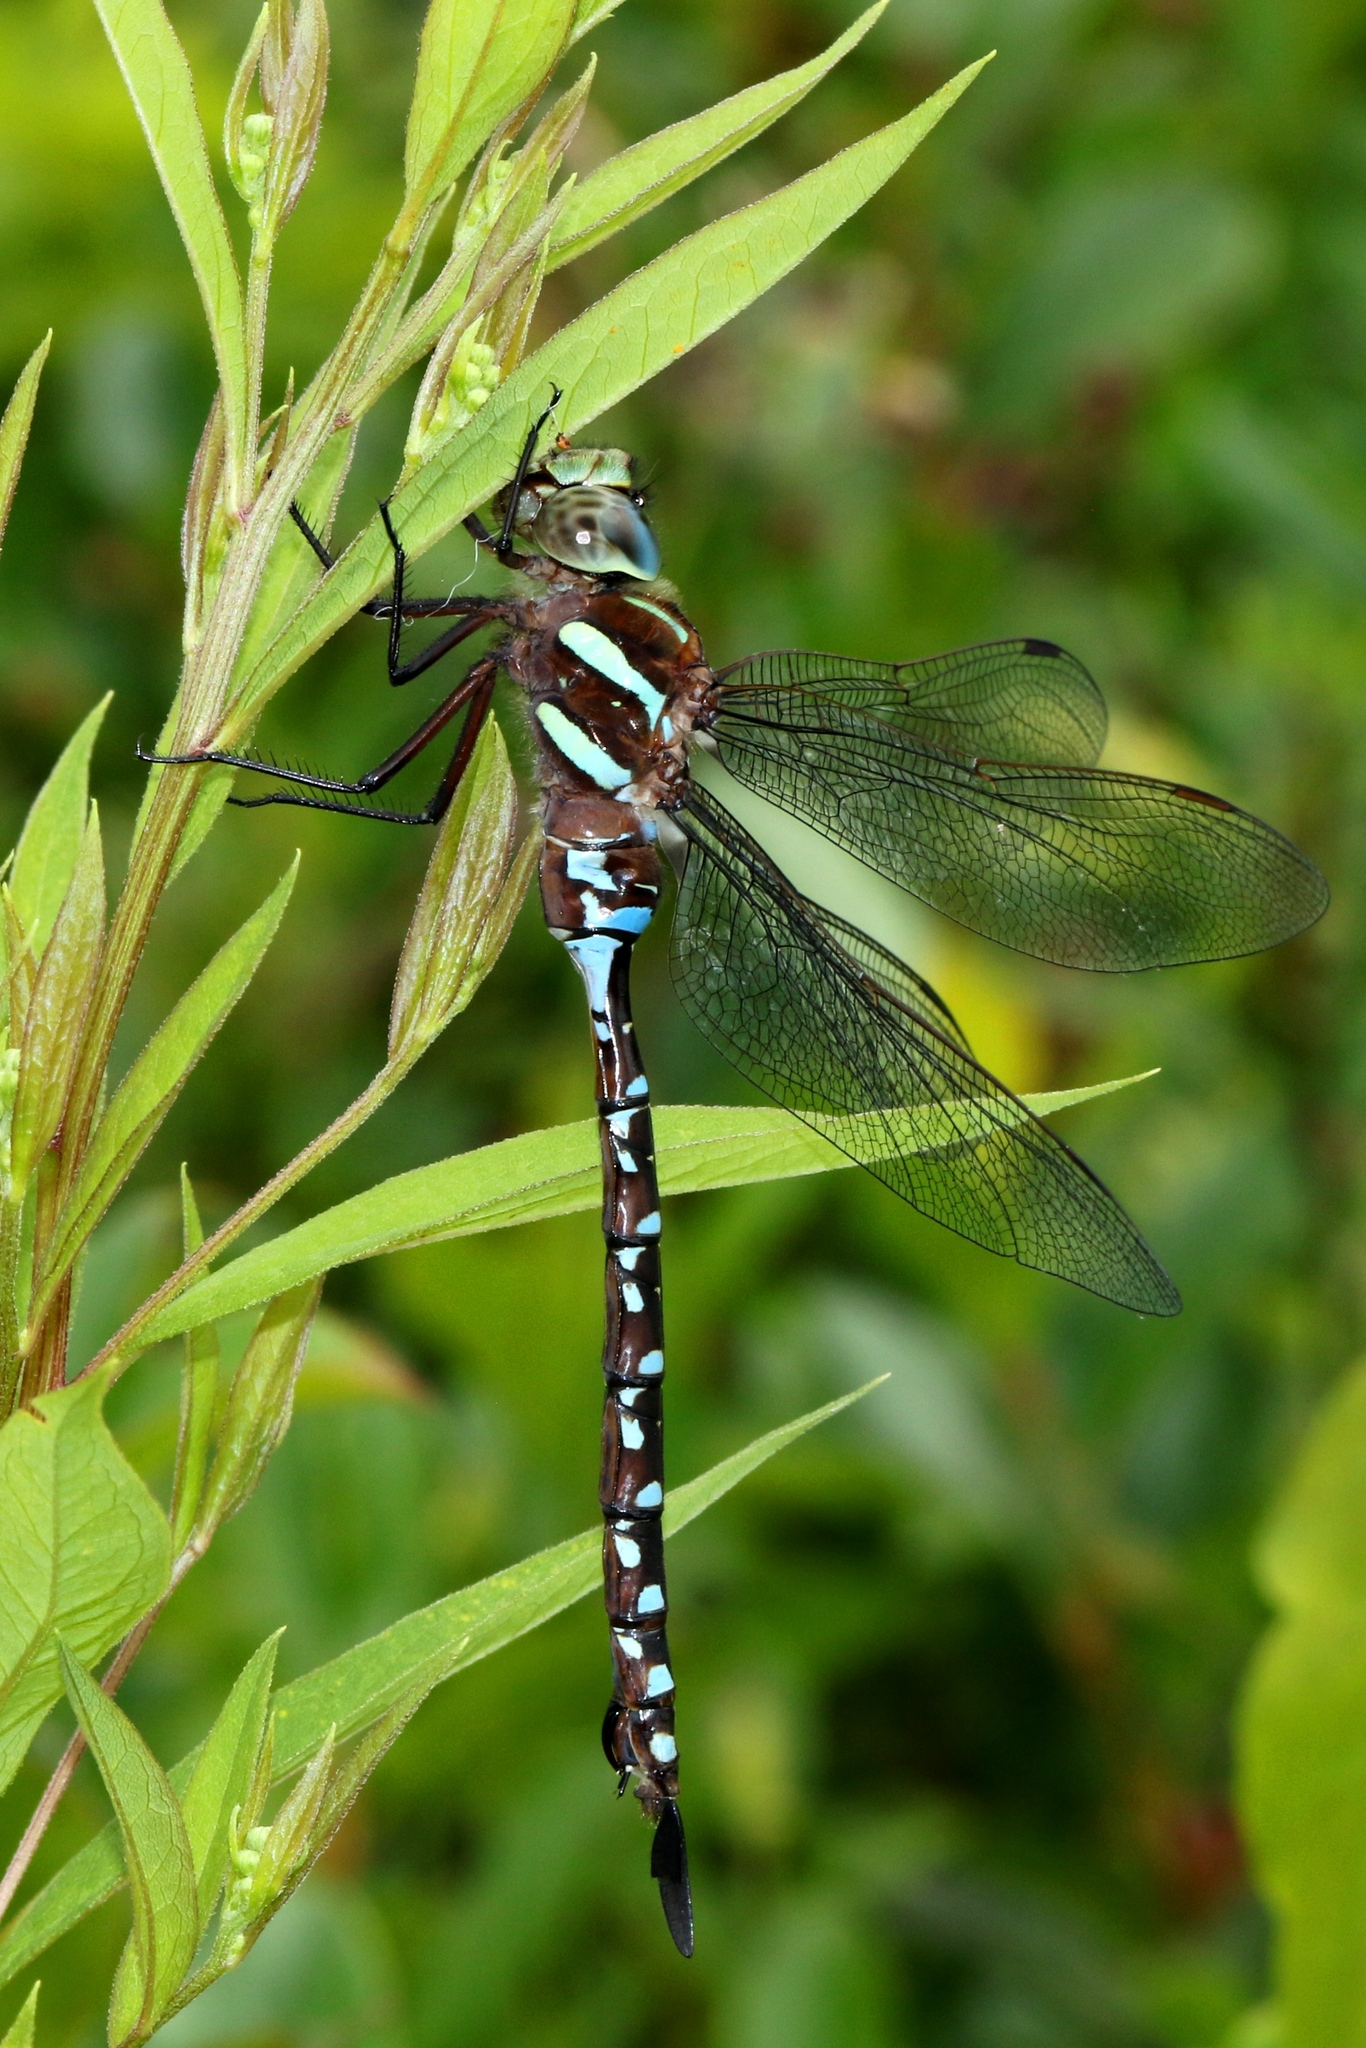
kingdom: Animalia
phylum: Arthropoda
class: Insecta
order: Odonata
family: Aeshnidae
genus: Aeshna
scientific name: Aeshna tuberculifera
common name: Aeschne à tubercules
